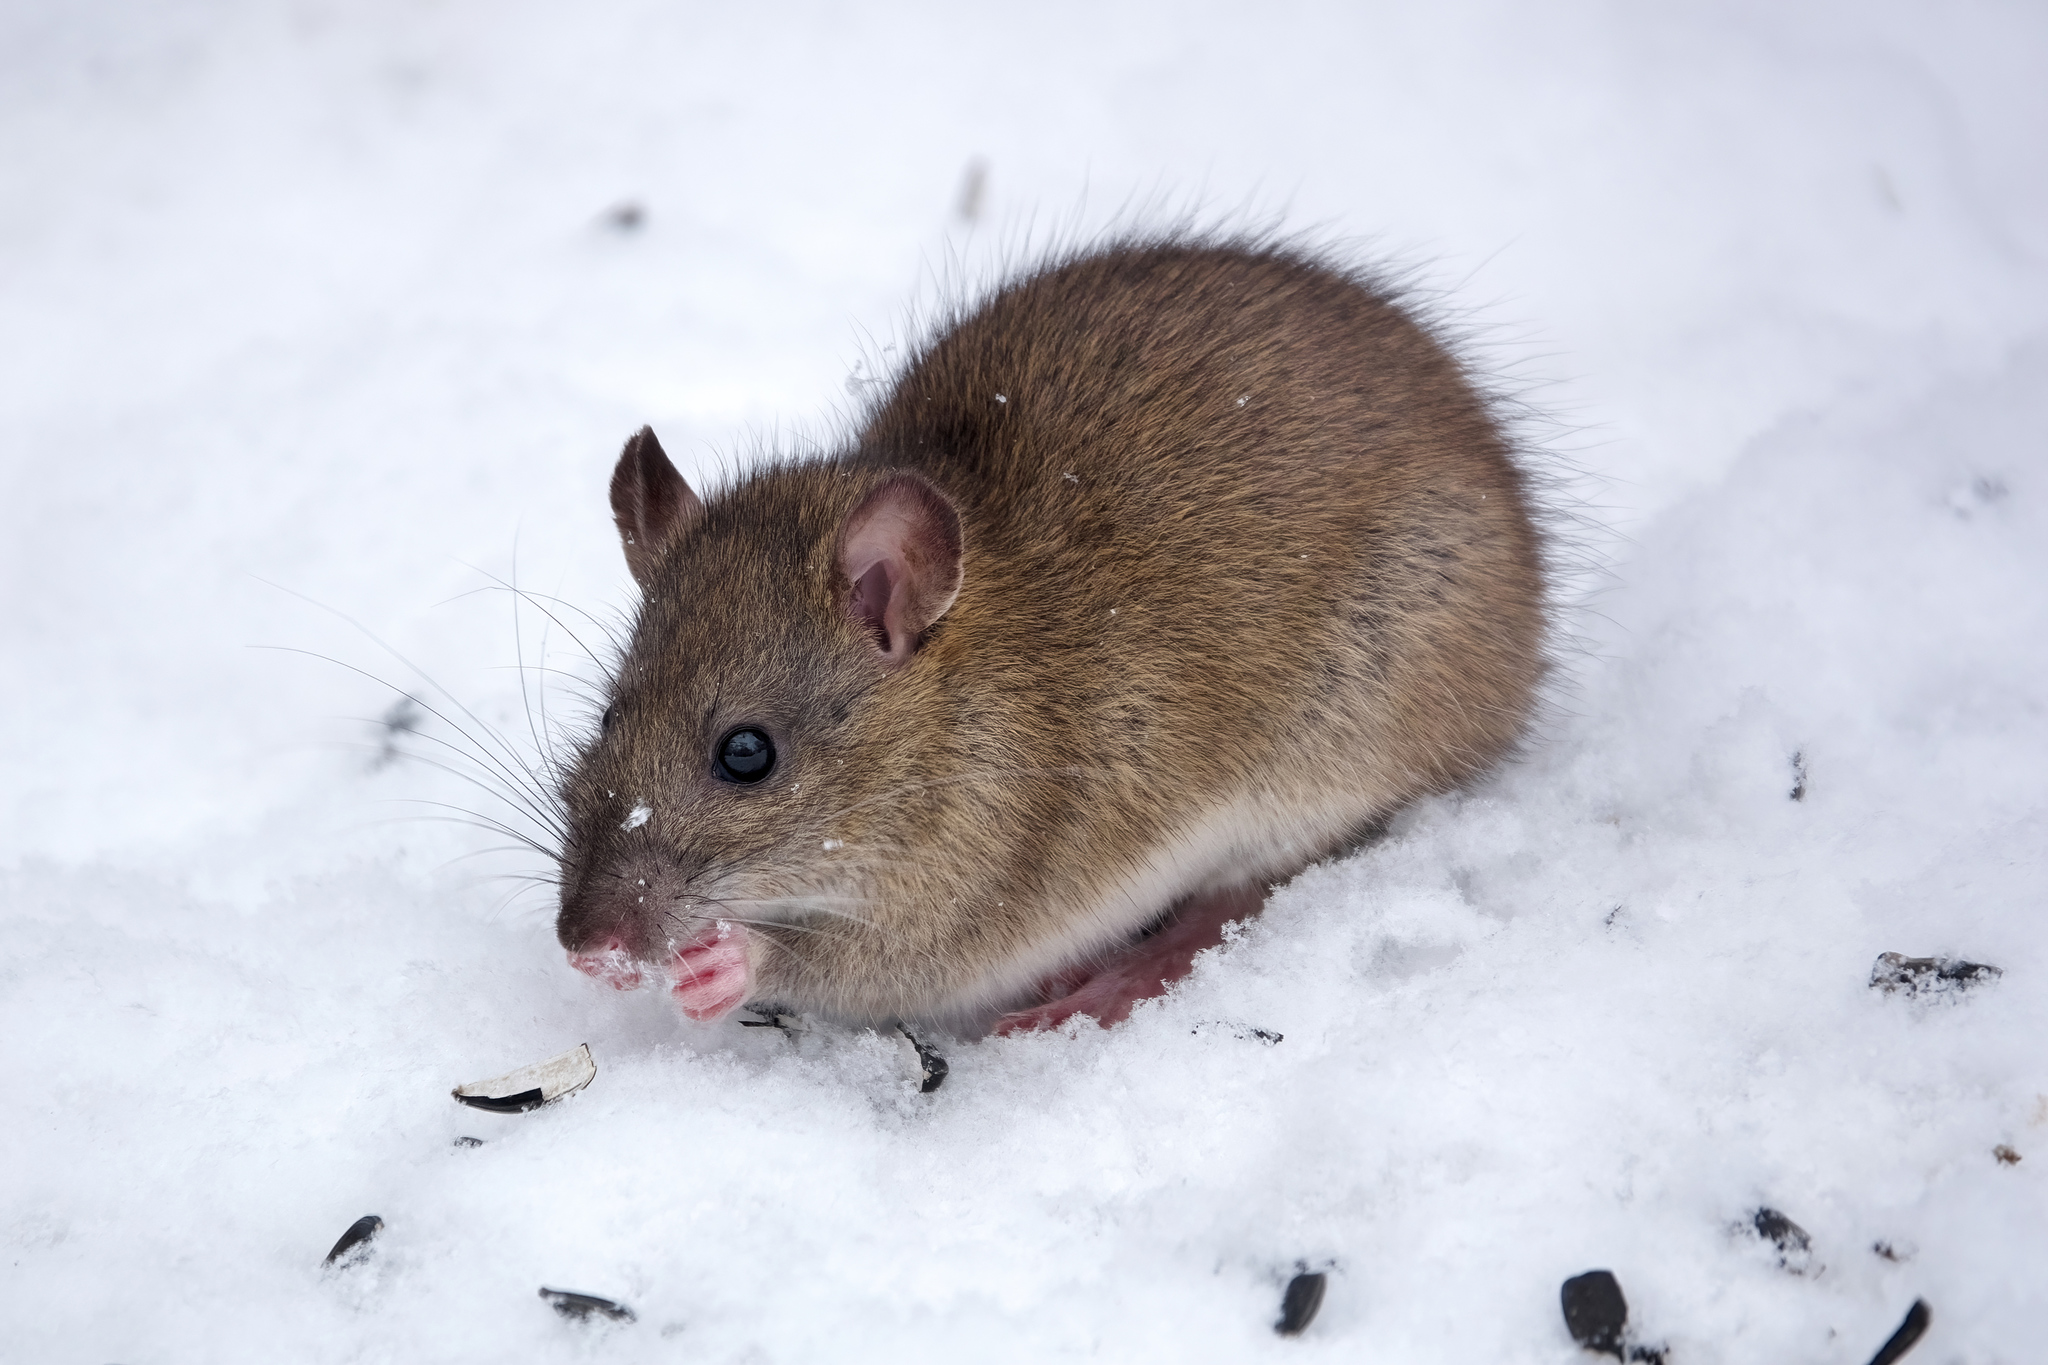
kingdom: Animalia
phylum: Chordata
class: Mammalia
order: Rodentia
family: Muridae
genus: Rattus
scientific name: Rattus norvegicus
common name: Brown rat
